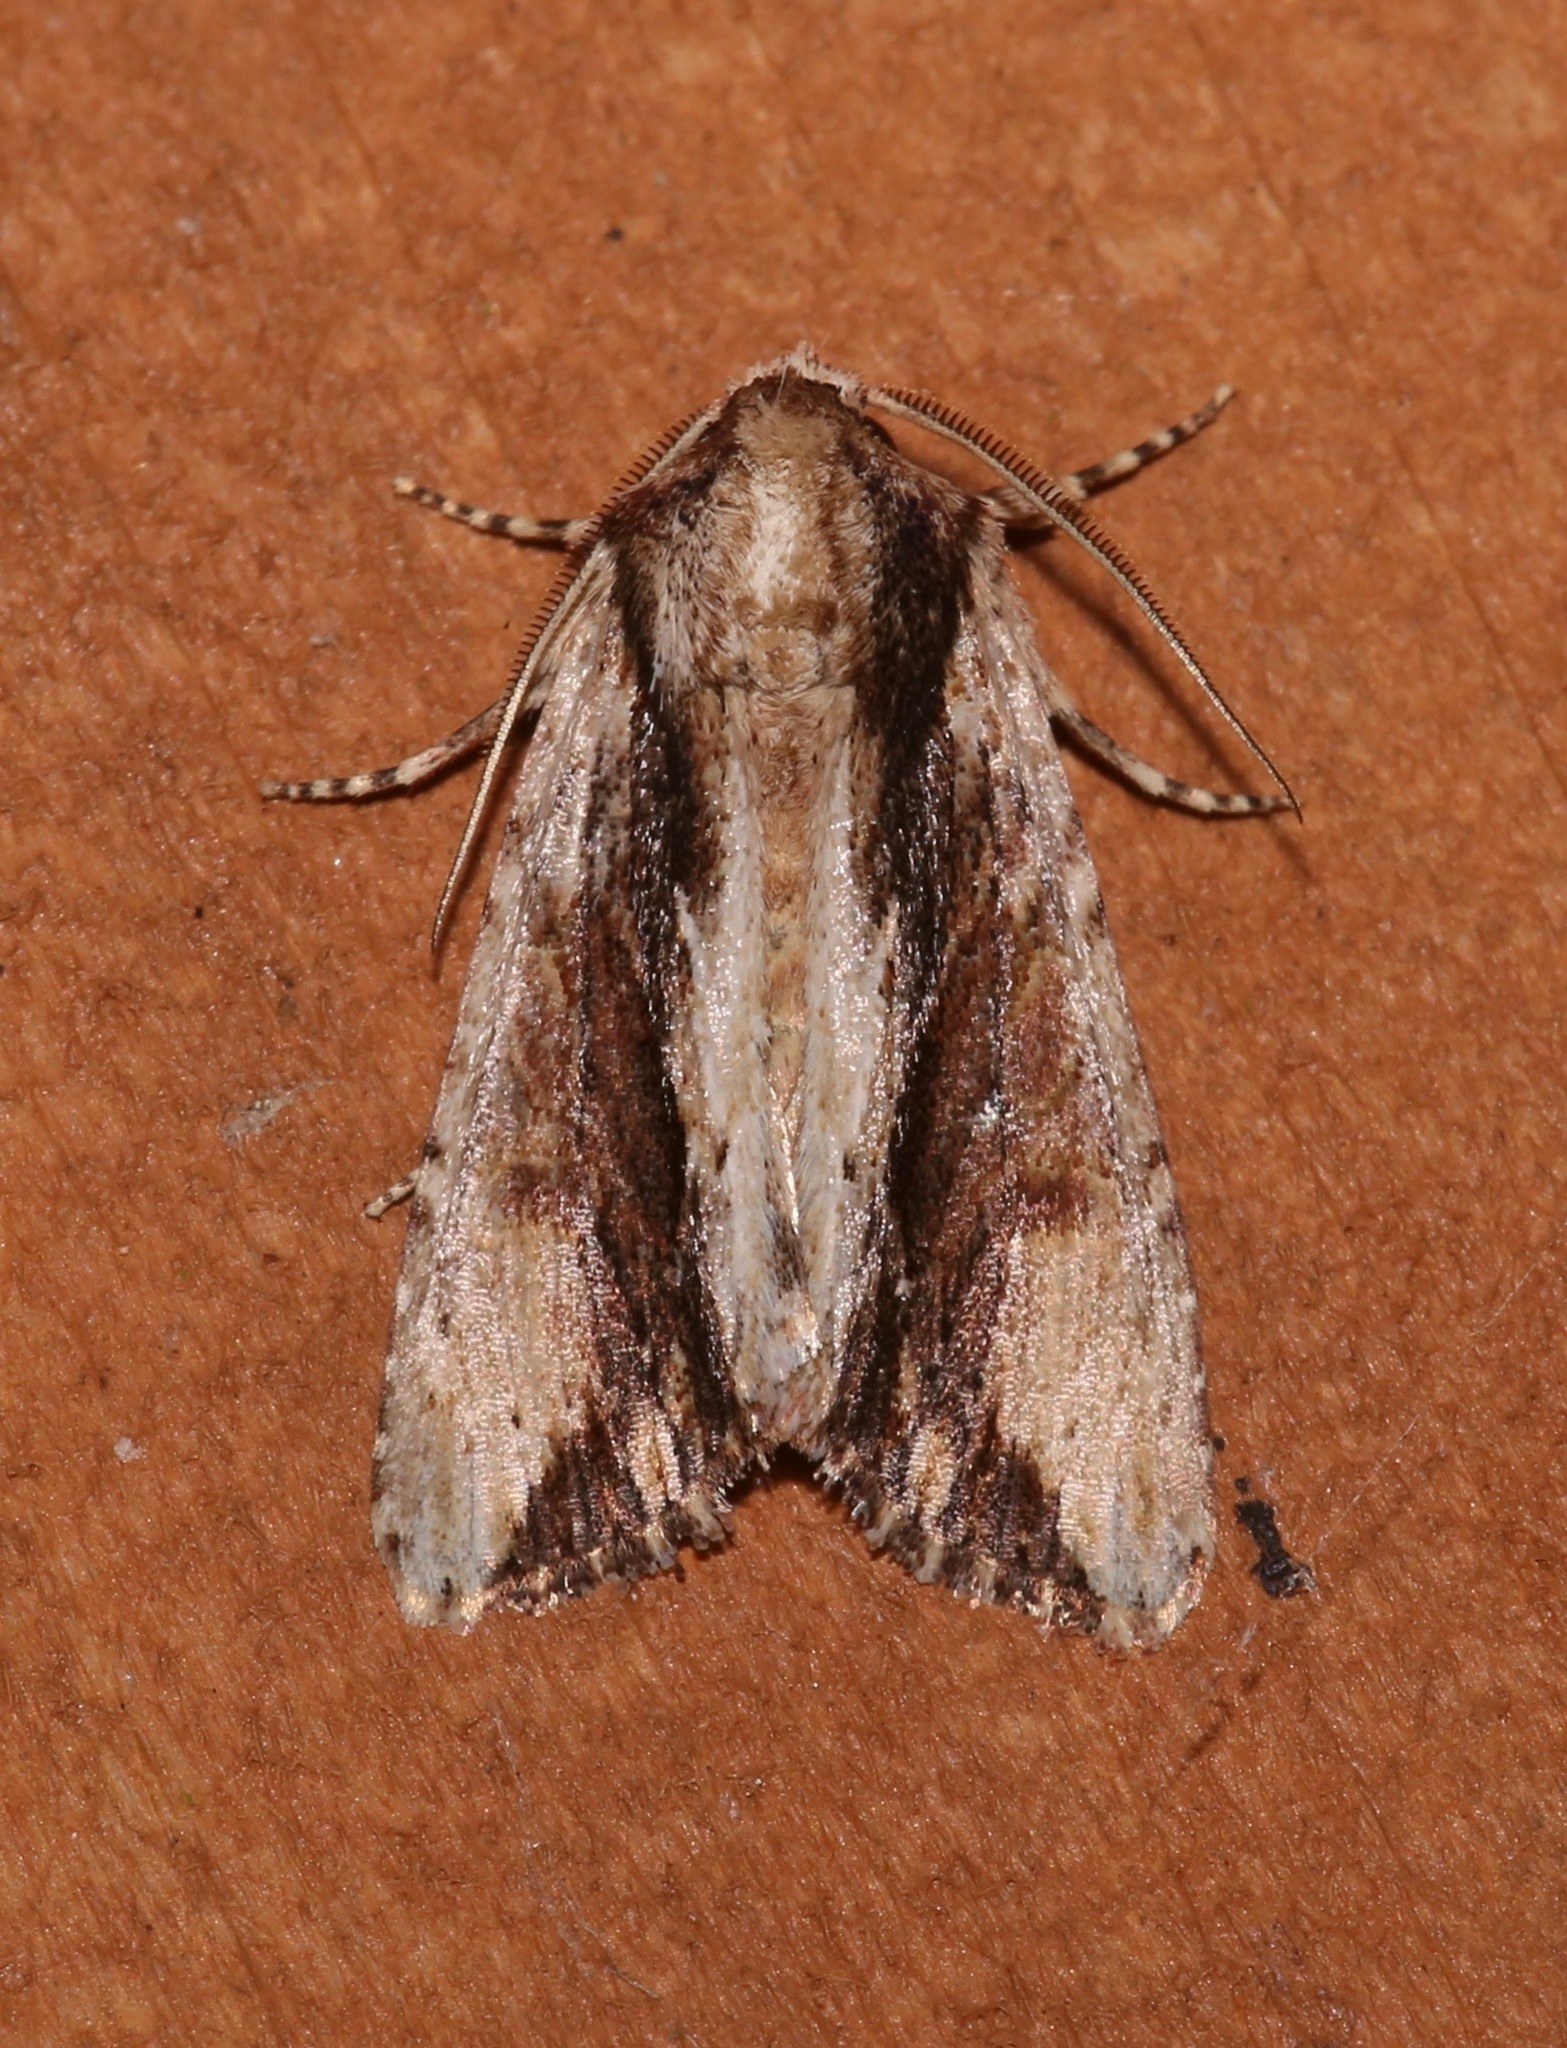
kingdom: Animalia
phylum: Arthropoda
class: Insecta
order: Lepidoptera
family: Noctuidae
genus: Achatia
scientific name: Achatia mucens
